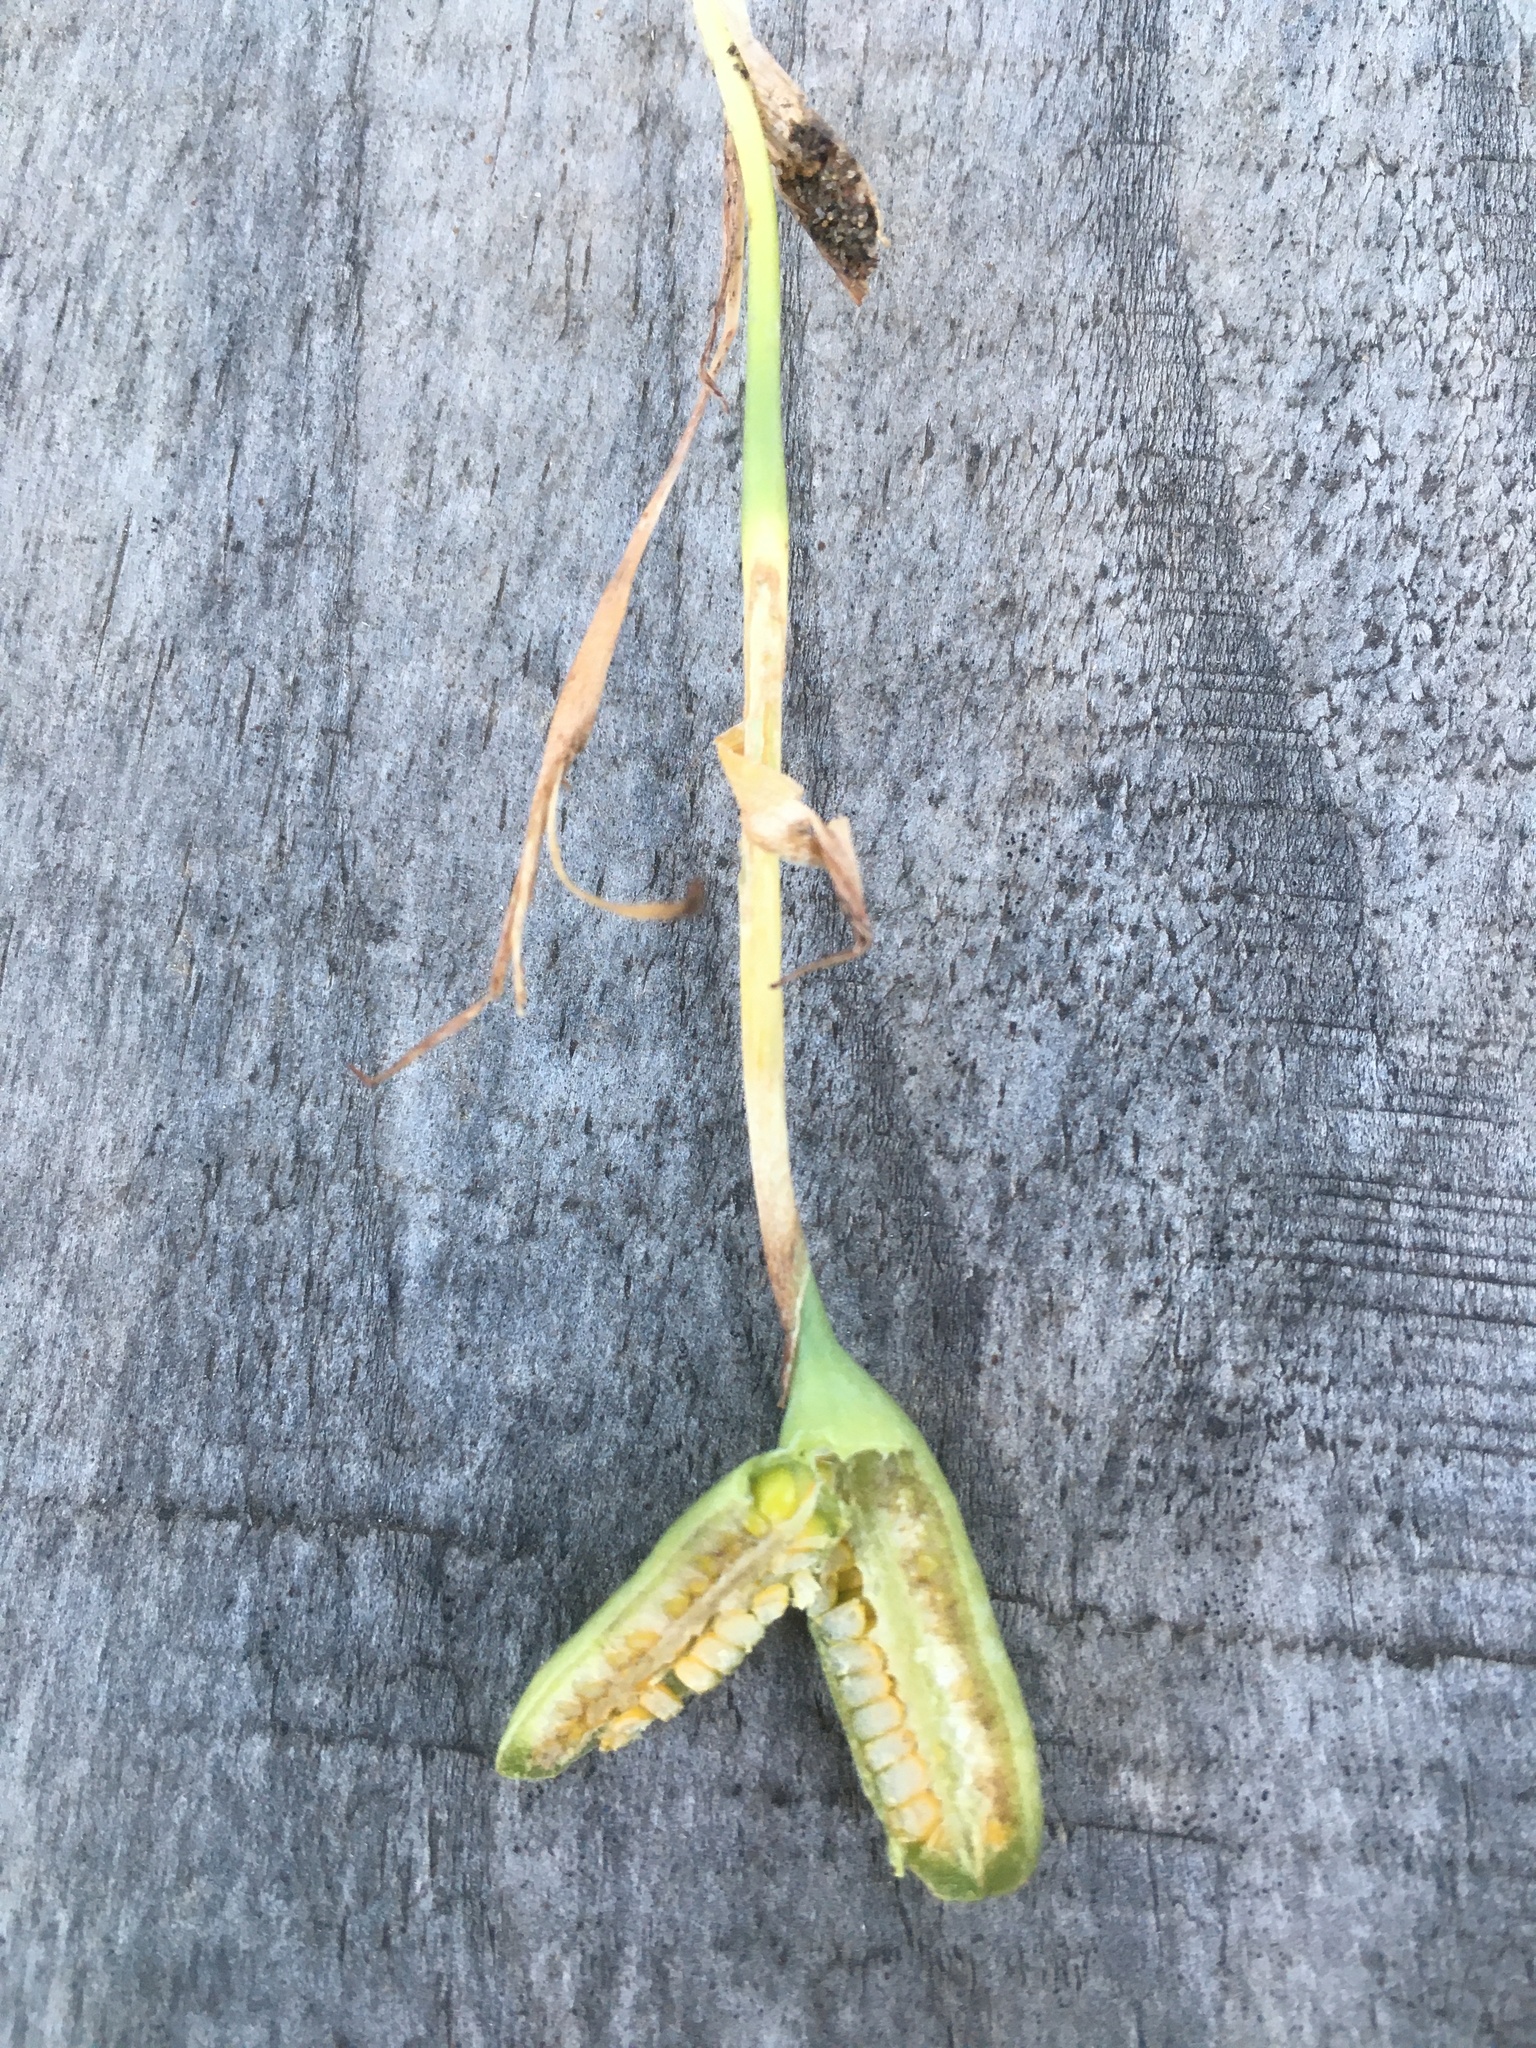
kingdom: Plantae
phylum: Tracheophyta
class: Liliopsida
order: Asparagales
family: Iridaceae
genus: Herbertia
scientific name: Herbertia lahue
